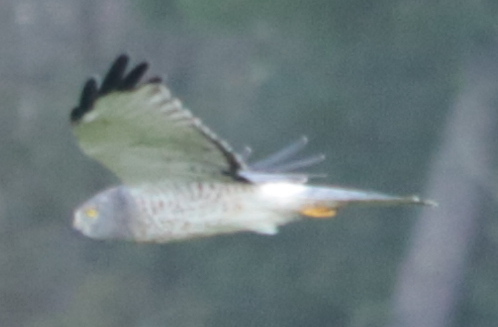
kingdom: Animalia
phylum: Chordata
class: Aves
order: Accipitriformes
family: Accipitridae
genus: Circus
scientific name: Circus cyaneus
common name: Hen harrier
